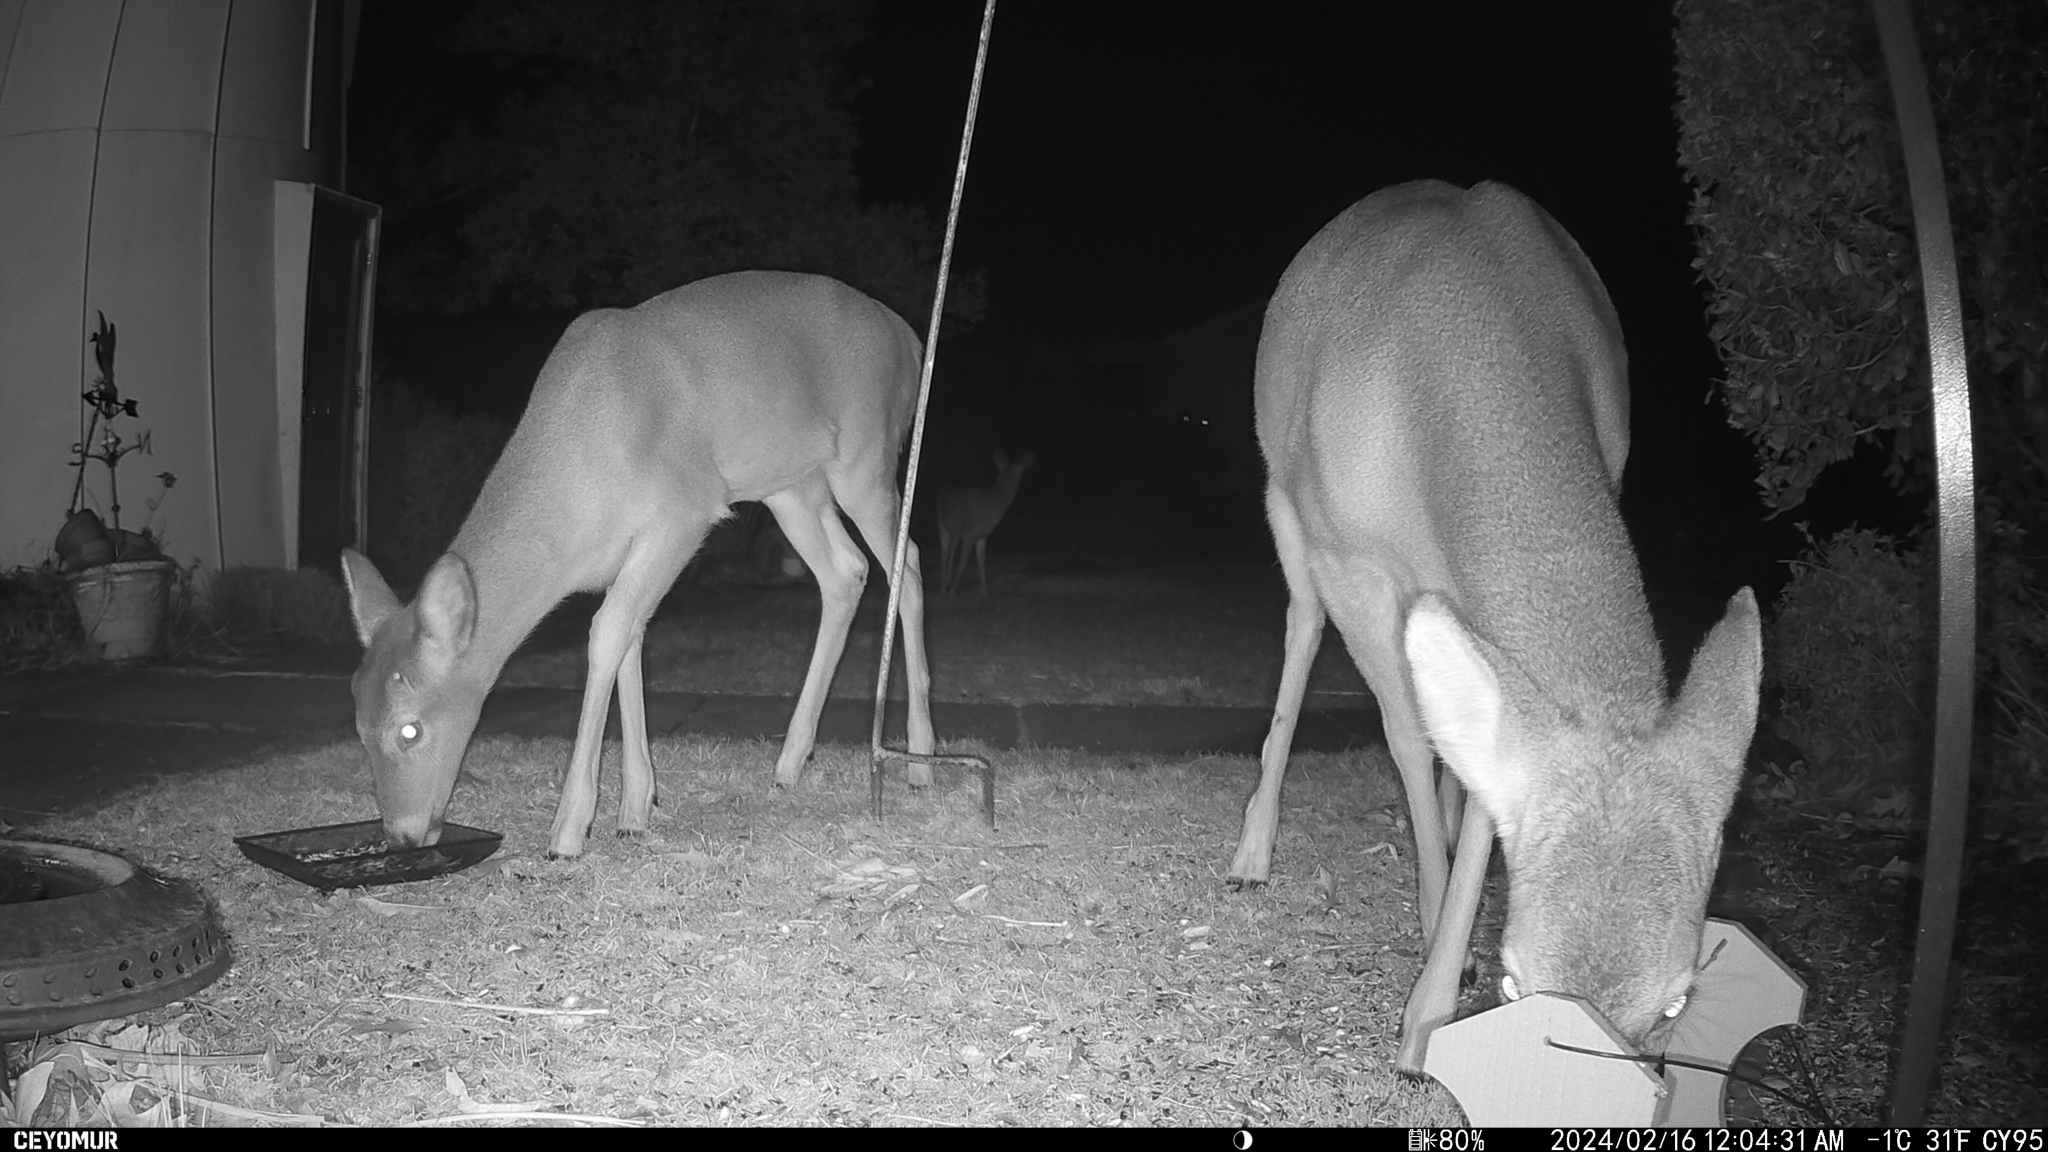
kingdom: Animalia
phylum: Chordata
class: Mammalia
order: Artiodactyla
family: Cervidae
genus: Odocoileus
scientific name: Odocoileus virginianus
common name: White-tailed deer
